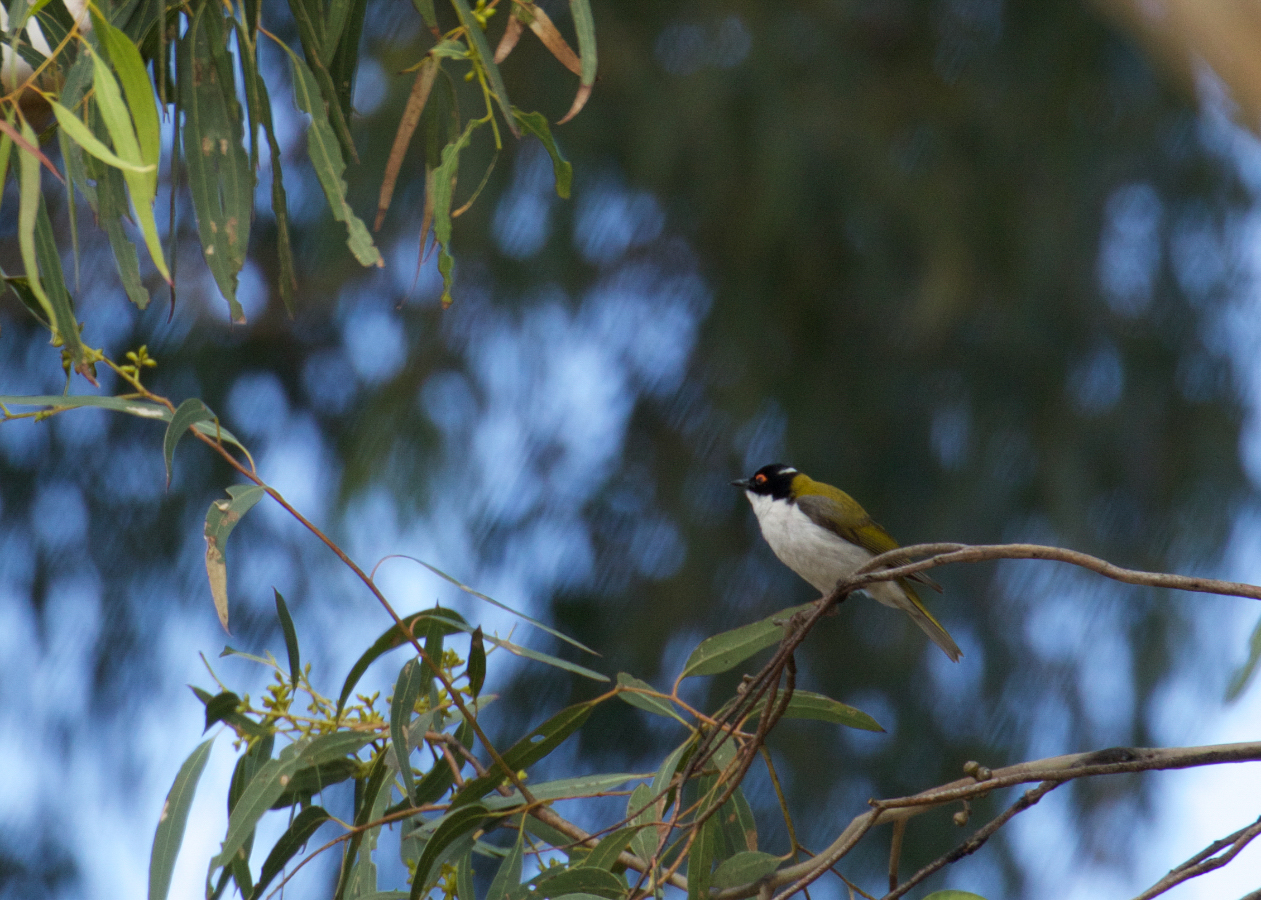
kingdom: Animalia
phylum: Chordata
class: Aves
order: Passeriformes
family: Meliphagidae
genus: Melithreptus
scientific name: Melithreptus lunatus
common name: White-naped honeyeater
